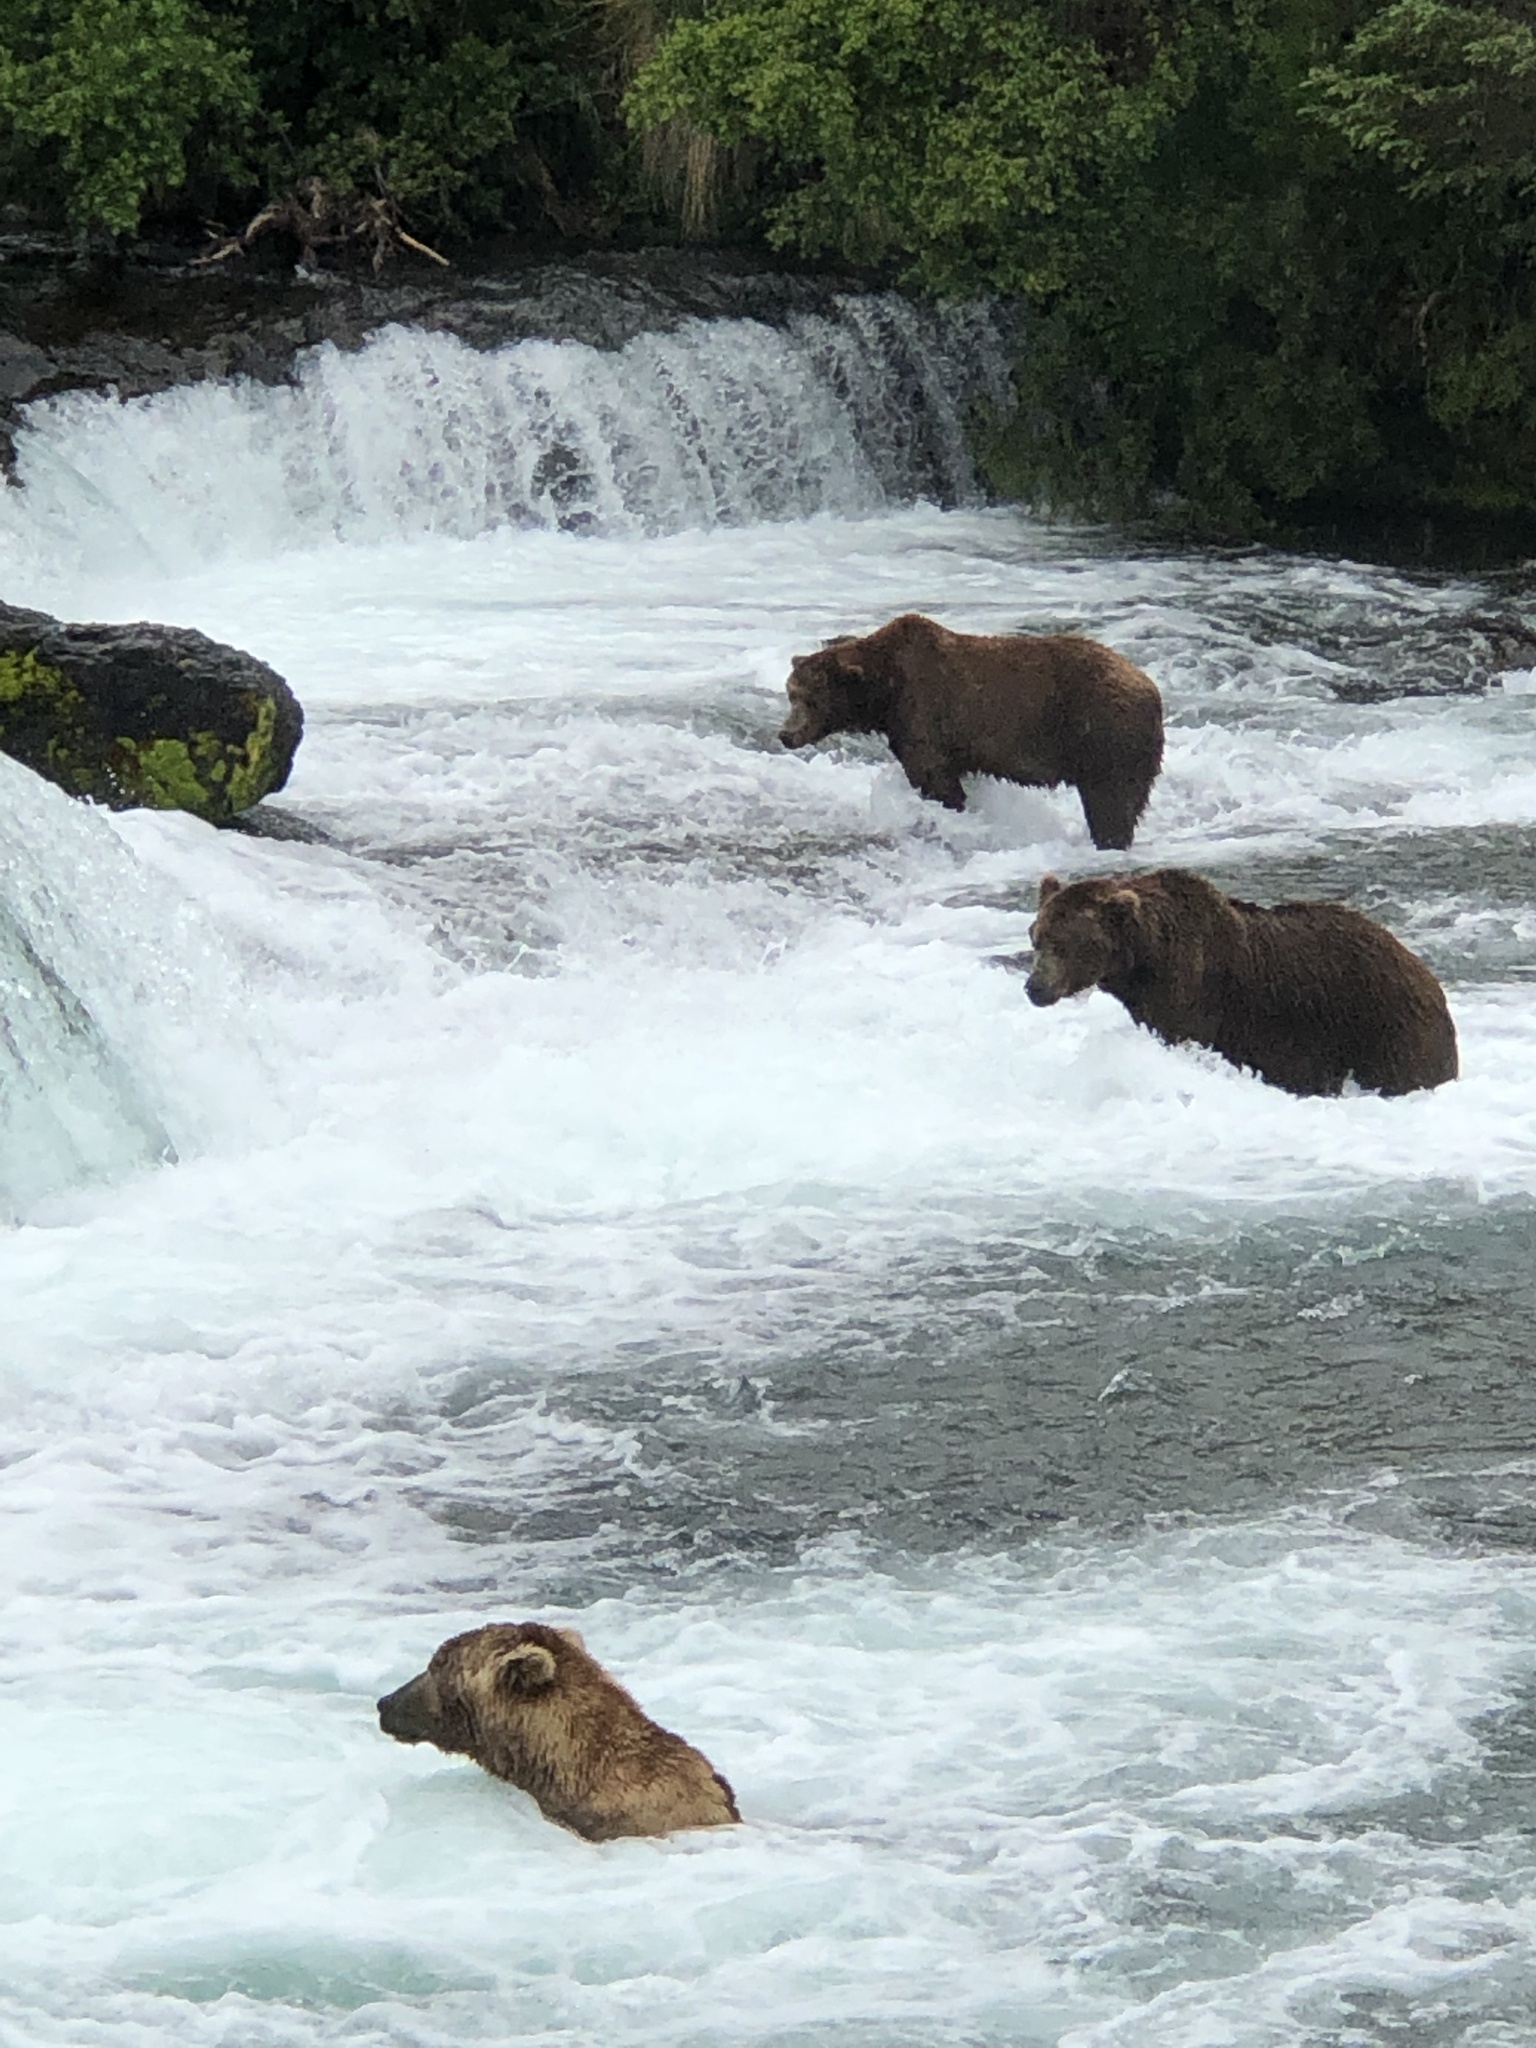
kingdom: Animalia
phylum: Chordata
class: Mammalia
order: Carnivora
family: Ursidae
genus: Ursus
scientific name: Ursus arctos
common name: Brown bear
